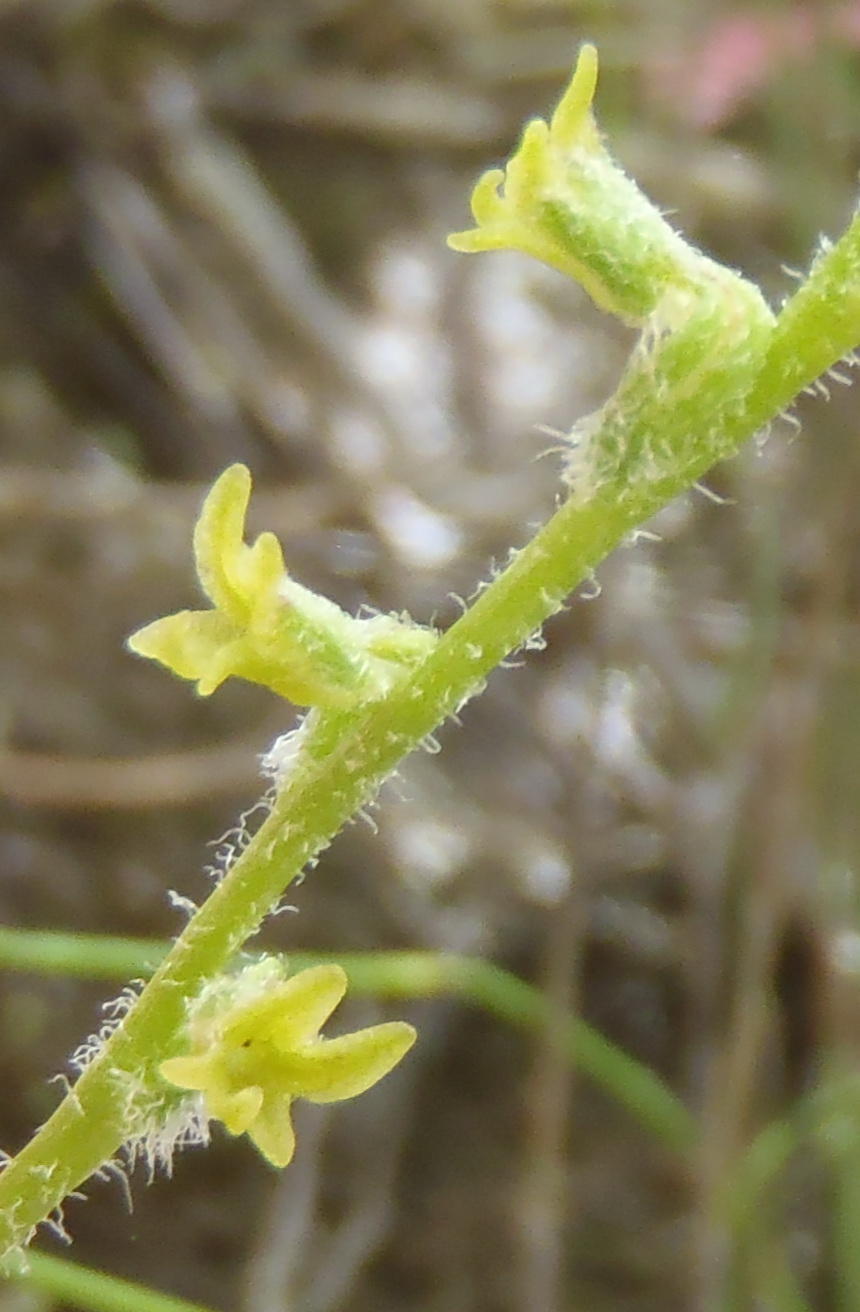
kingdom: Plantae
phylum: Tracheophyta
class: Liliopsida
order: Asparagales
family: Orchidaceae
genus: Holothrix
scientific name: Holothrix brevipetala
